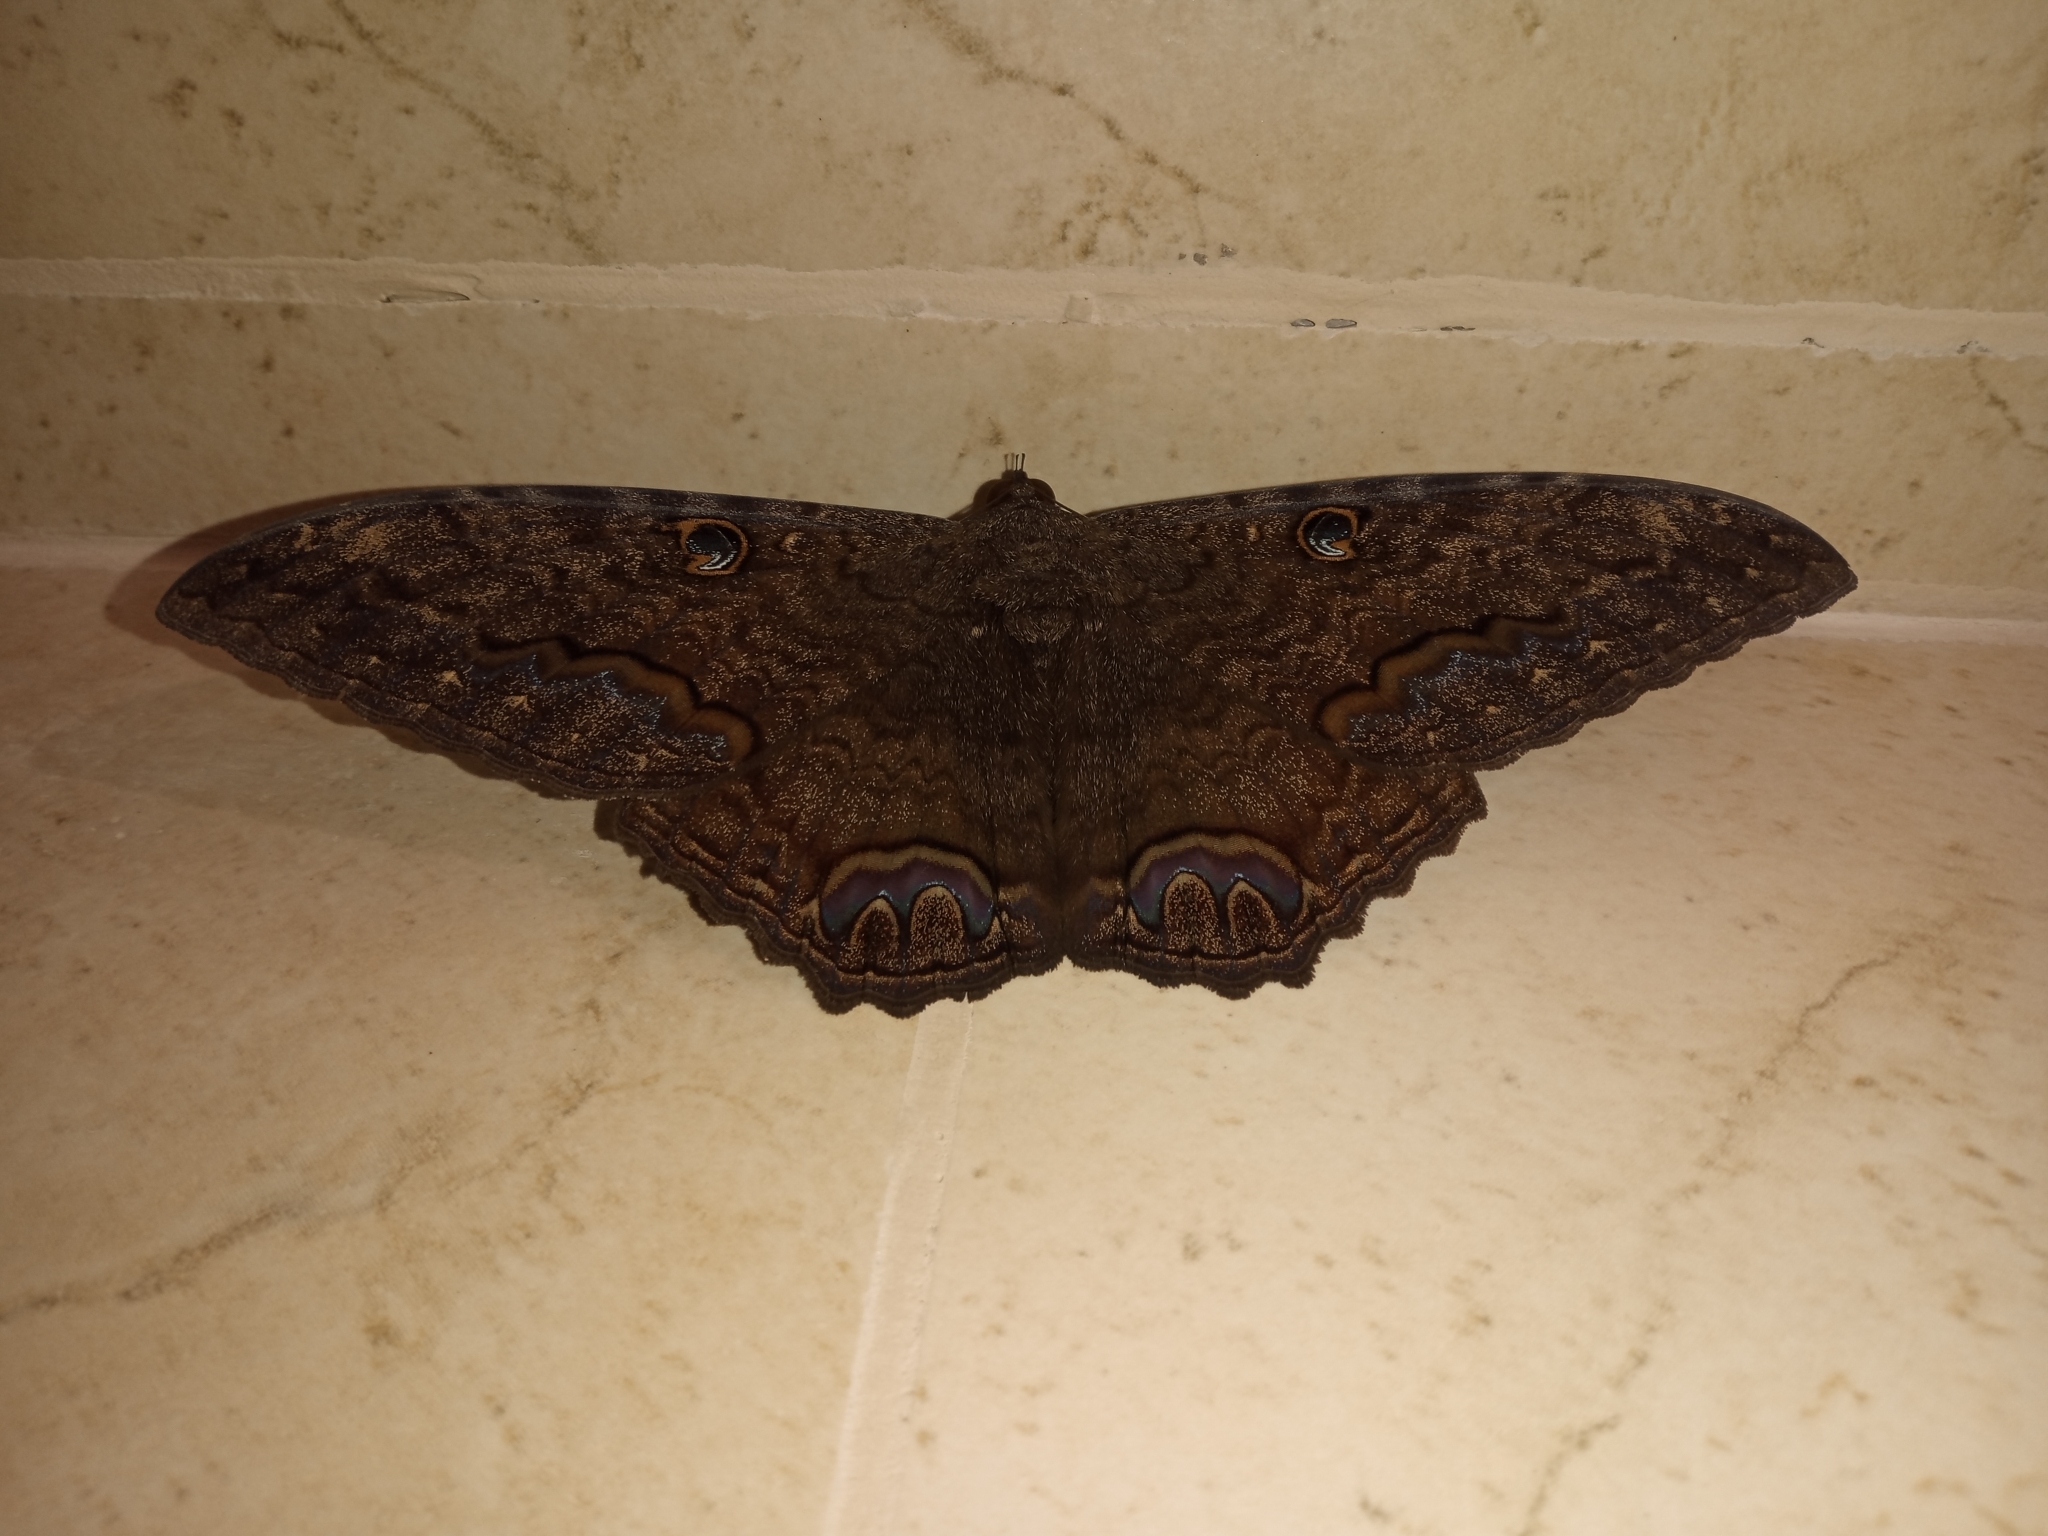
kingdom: Animalia
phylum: Arthropoda
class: Insecta
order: Lepidoptera
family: Erebidae
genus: Ascalapha
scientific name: Ascalapha odorata
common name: Black witch
